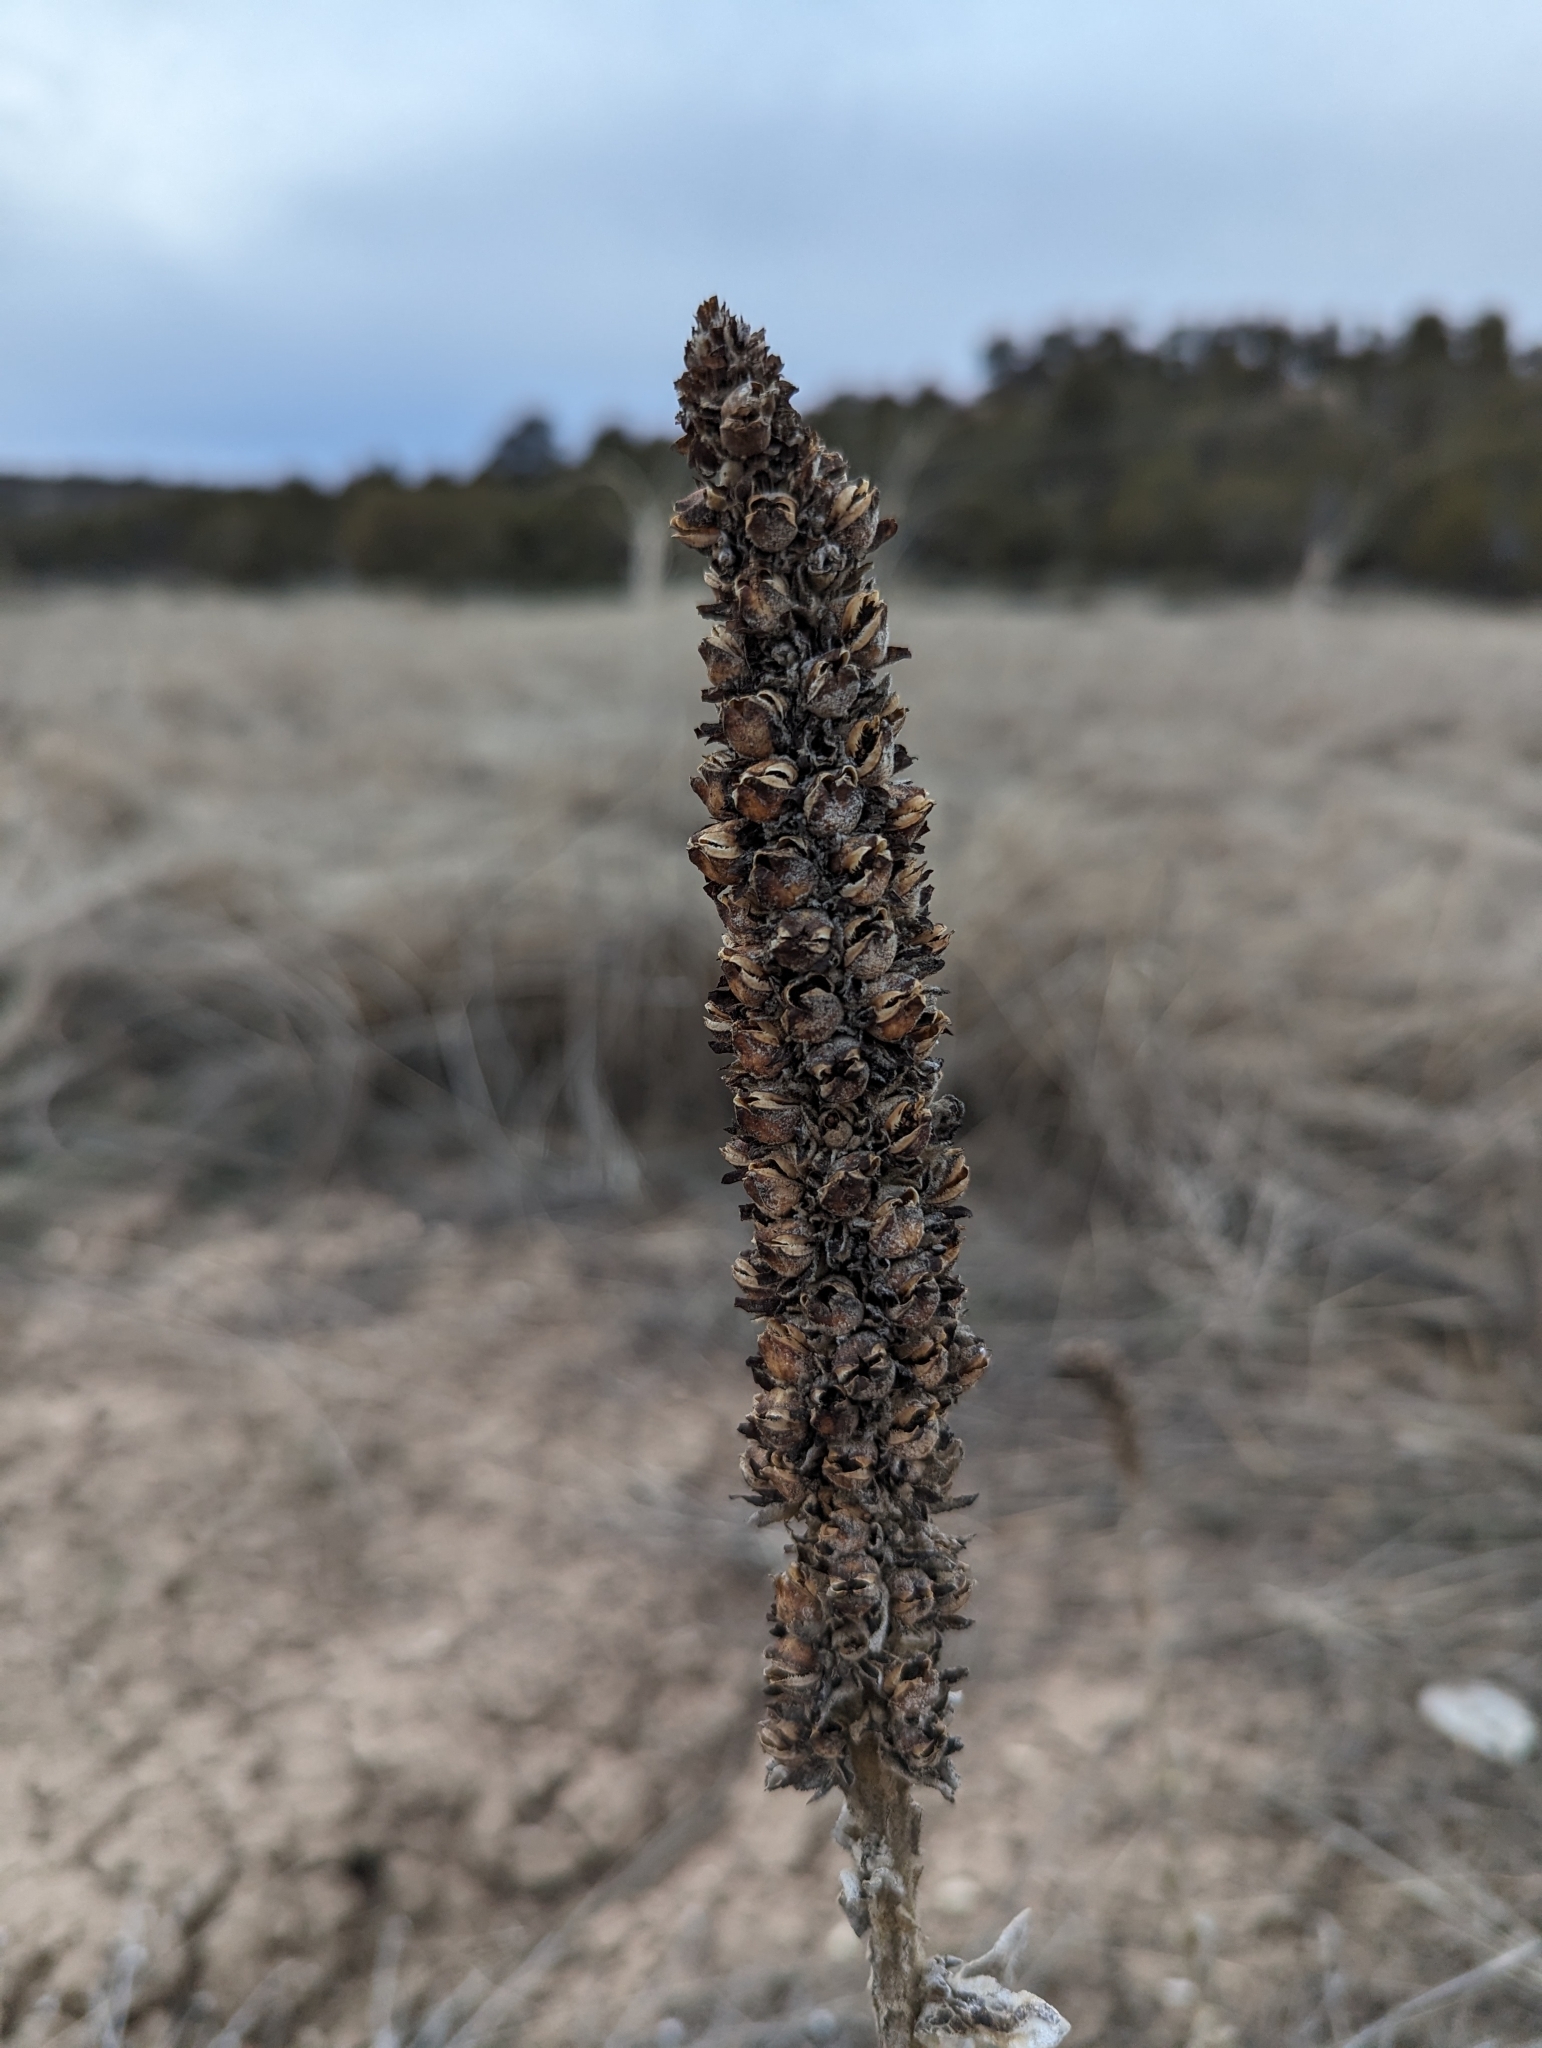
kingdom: Plantae
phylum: Tracheophyta
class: Magnoliopsida
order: Lamiales
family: Scrophulariaceae
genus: Verbascum
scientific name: Verbascum thapsus
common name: Common mullein
